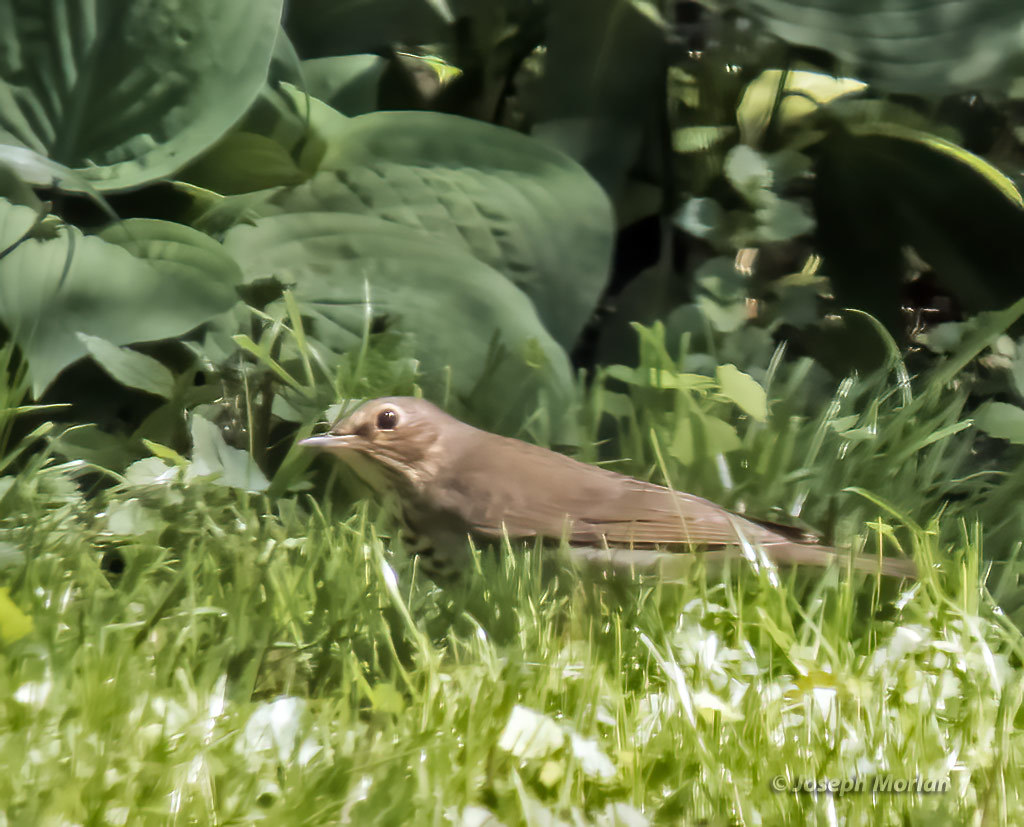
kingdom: Animalia
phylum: Chordata
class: Aves
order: Passeriformes
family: Turdidae
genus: Catharus
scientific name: Catharus ustulatus
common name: Swainson's thrush
